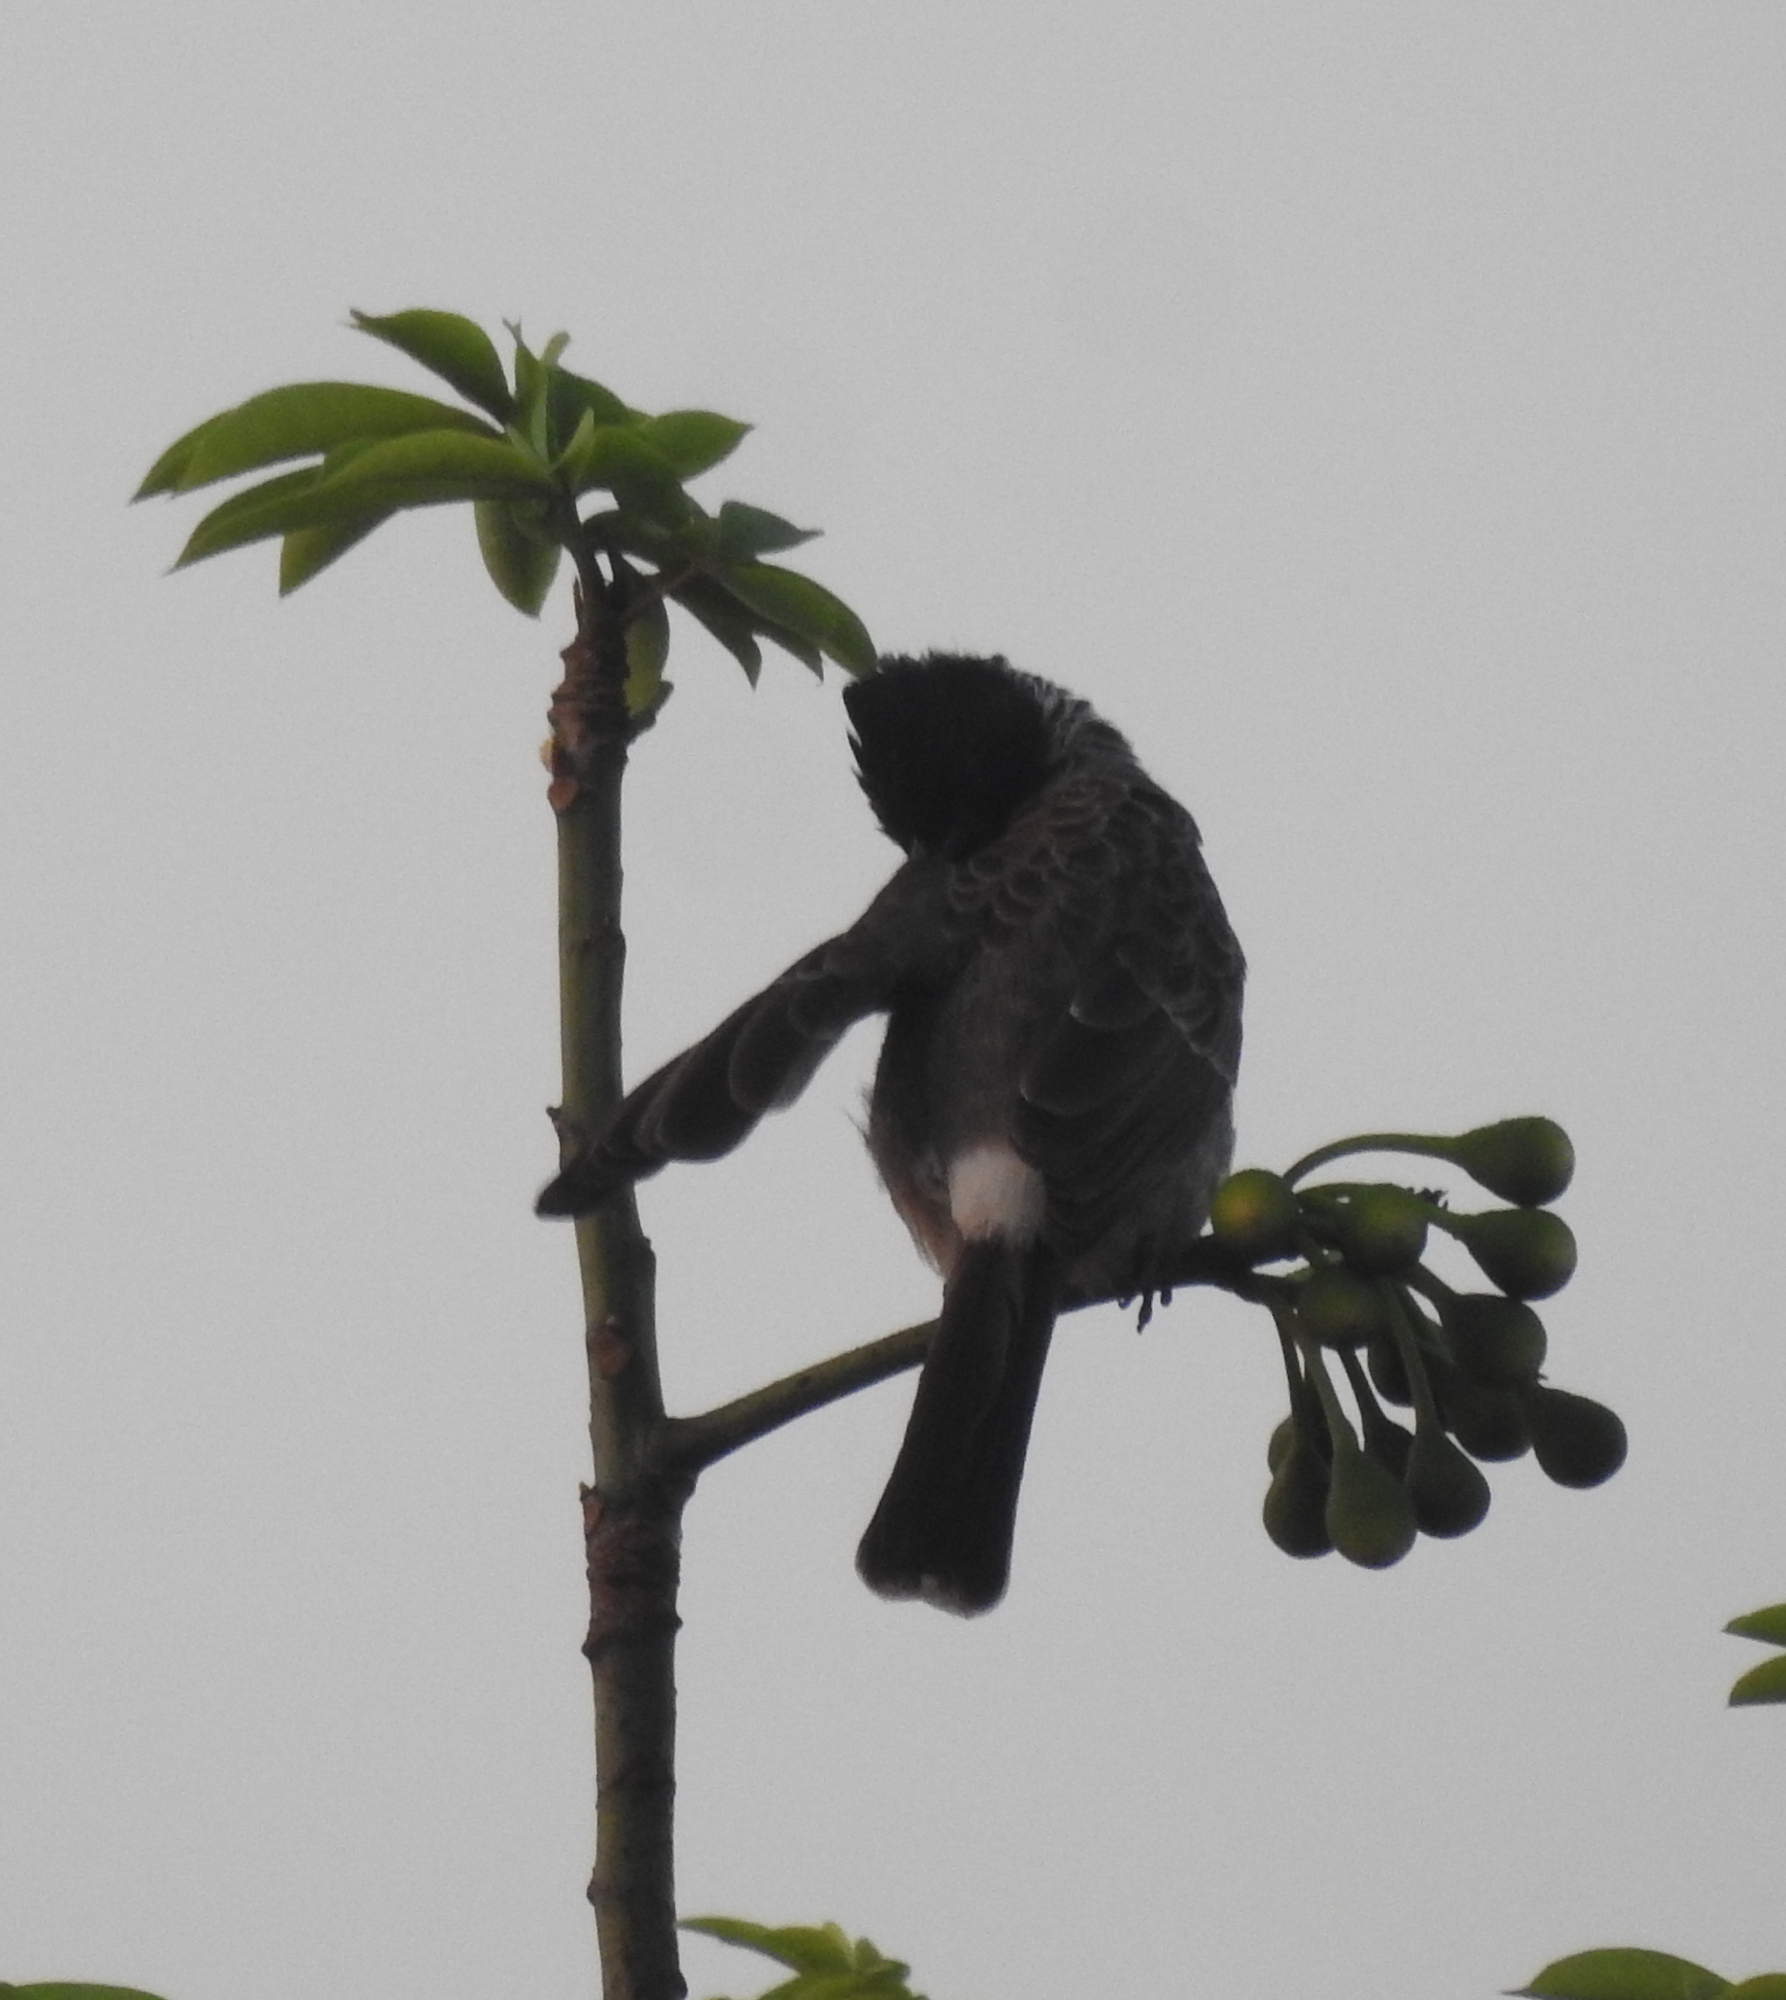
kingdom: Animalia
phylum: Chordata
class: Aves
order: Passeriformes
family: Pycnonotidae
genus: Pycnonotus
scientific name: Pycnonotus cafer
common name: Red-vented bulbul
